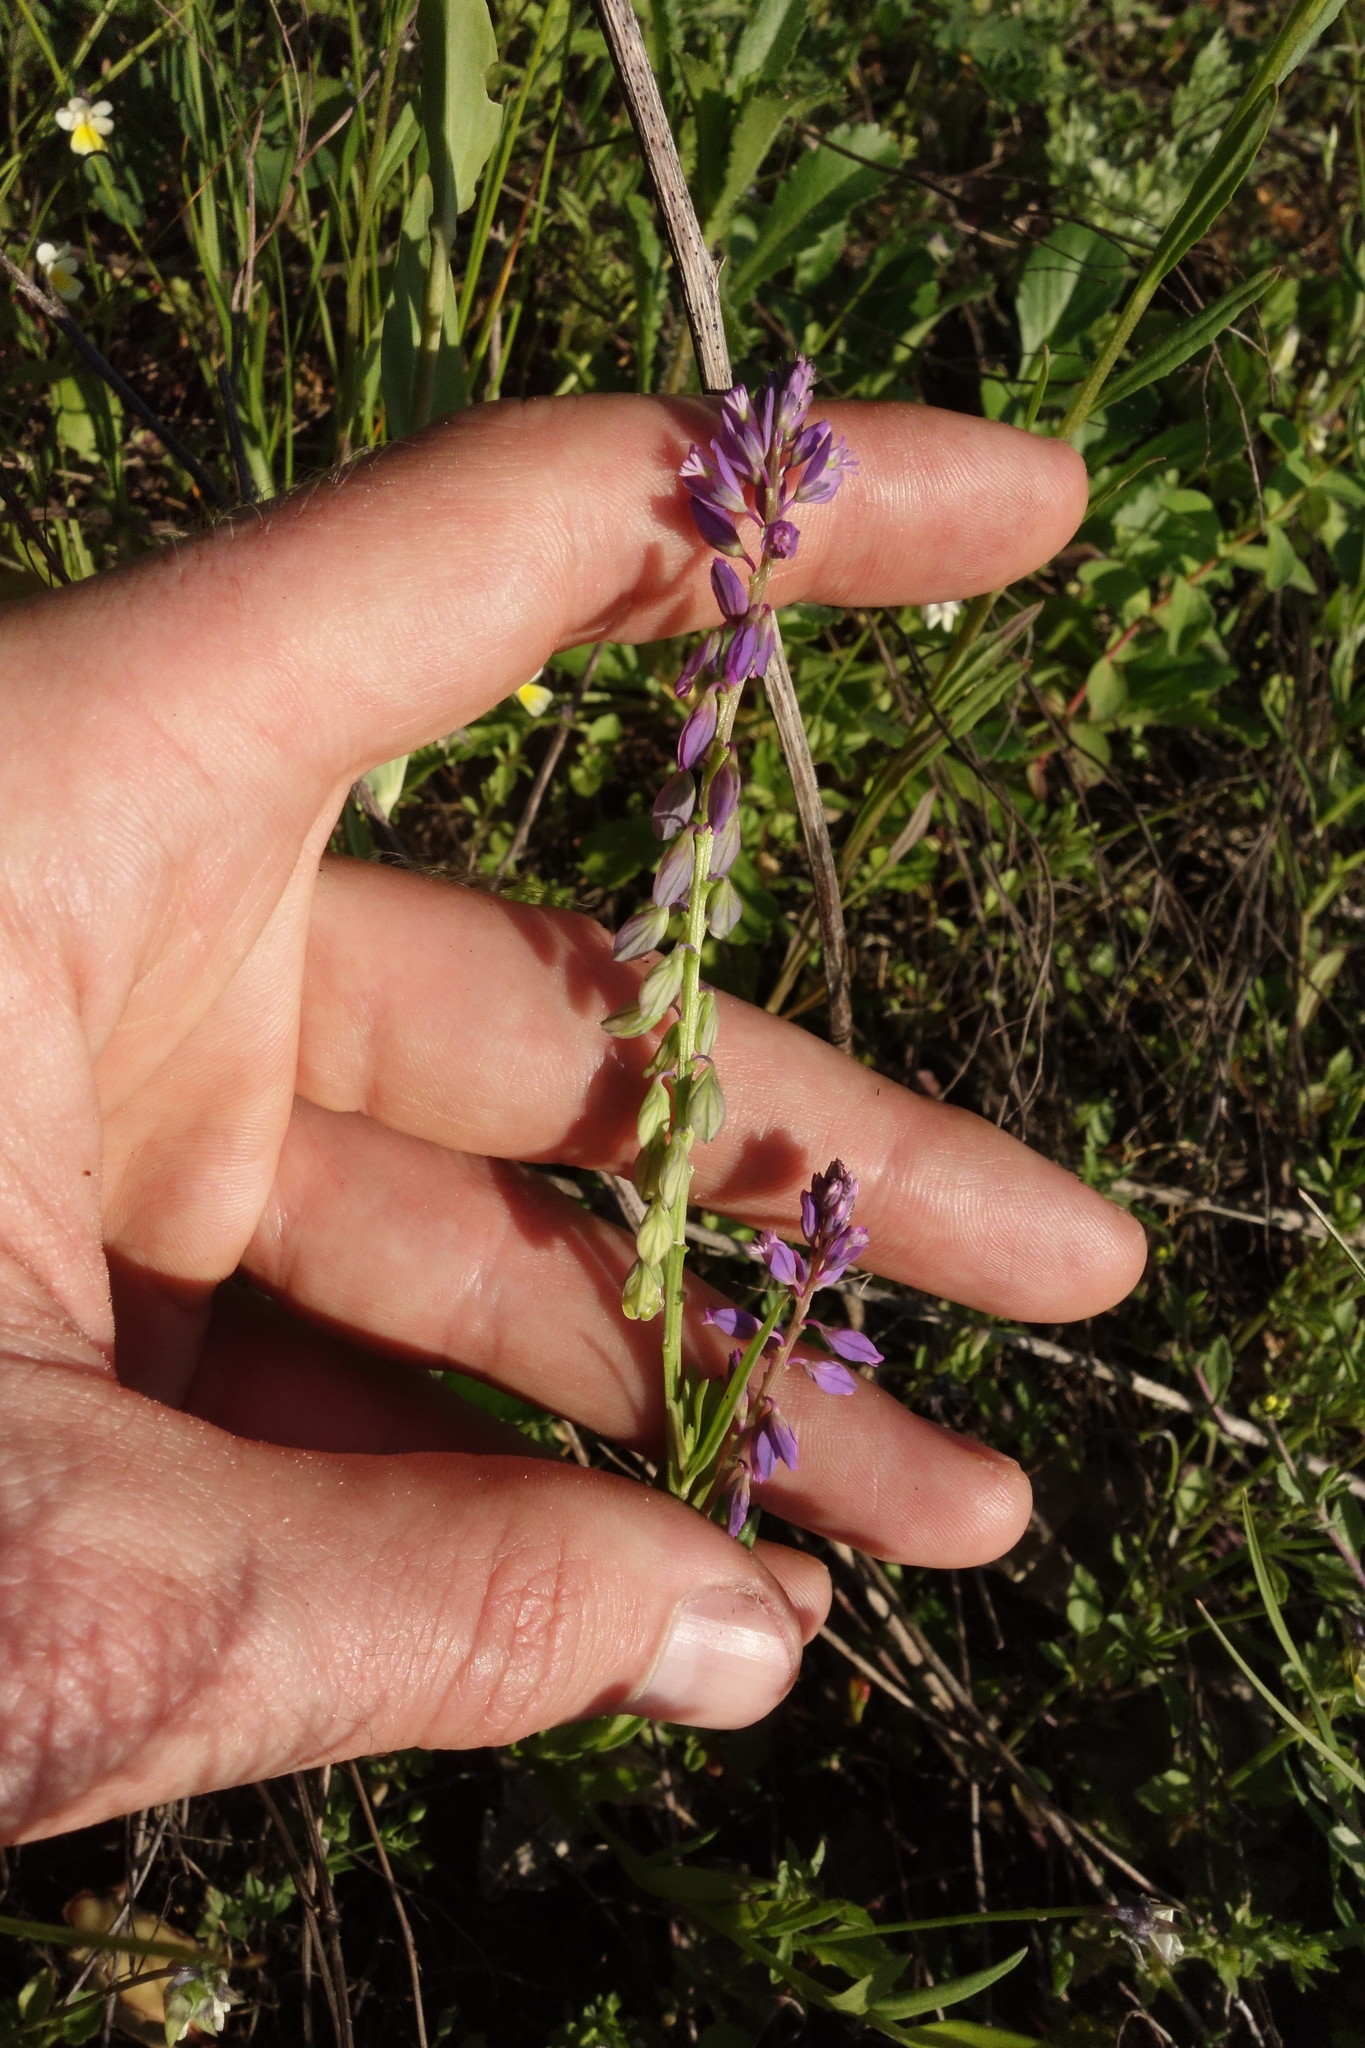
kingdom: Plantae
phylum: Tracheophyta
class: Magnoliopsida
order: Fabales
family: Polygalaceae
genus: Polygala
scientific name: Polygala comosa
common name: Tufted milkwort
